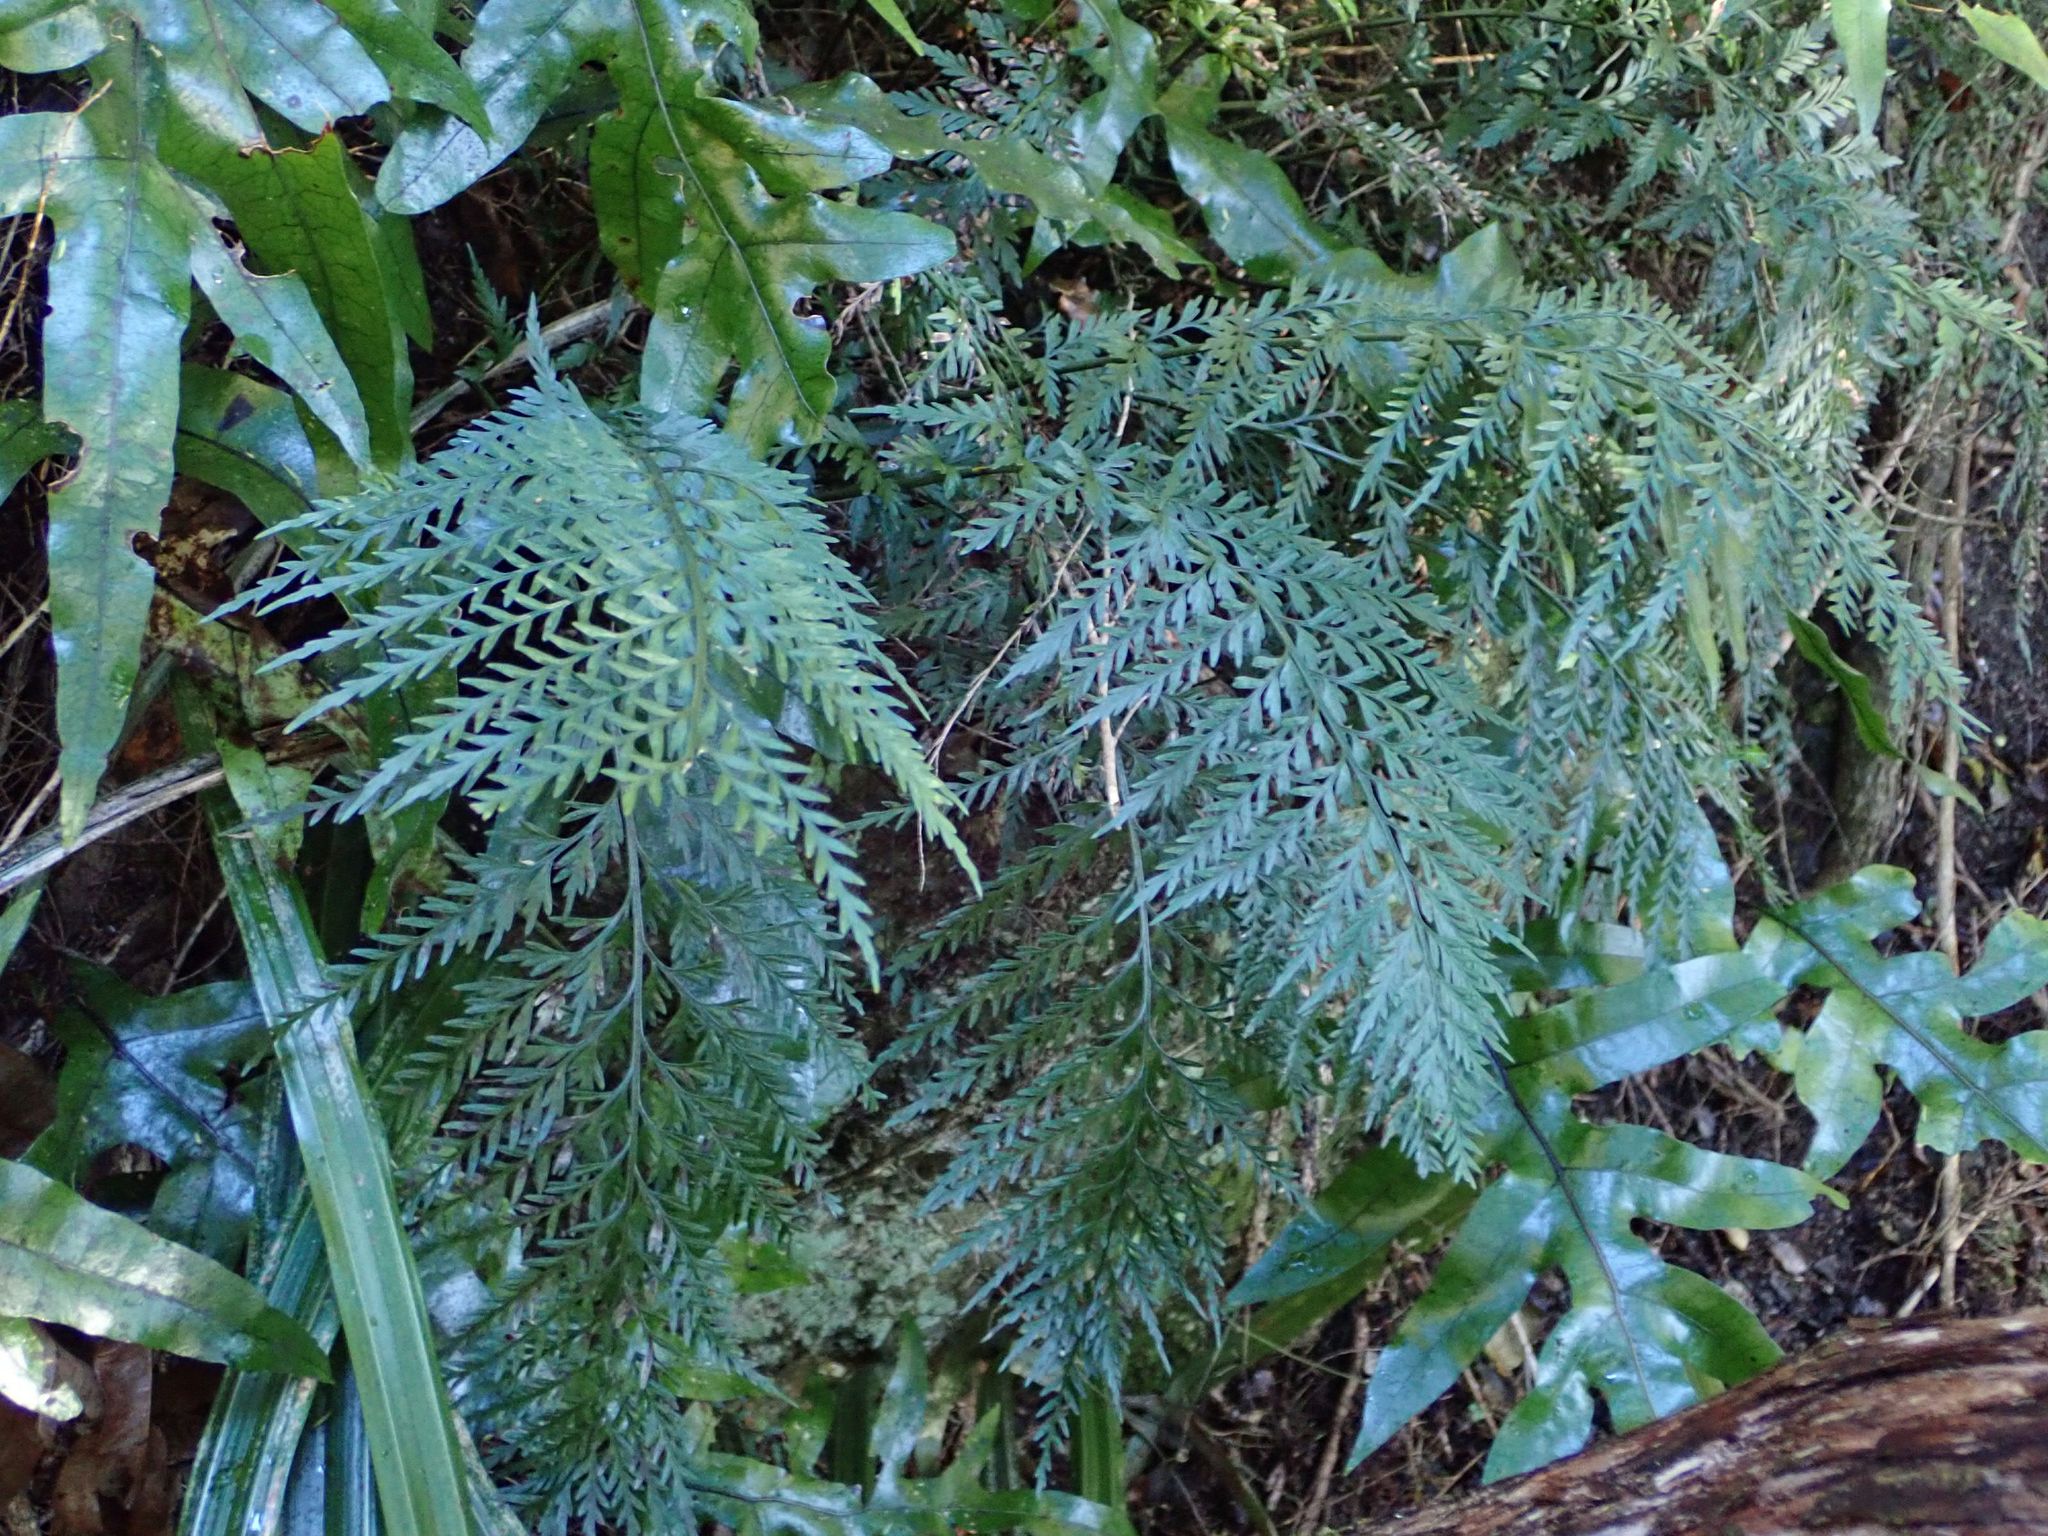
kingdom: Plantae
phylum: Tracheophyta
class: Polypodiopsida
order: Polypodiales
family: Aspleniaceae
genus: Asplenium
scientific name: Asplenium appendiculatum
